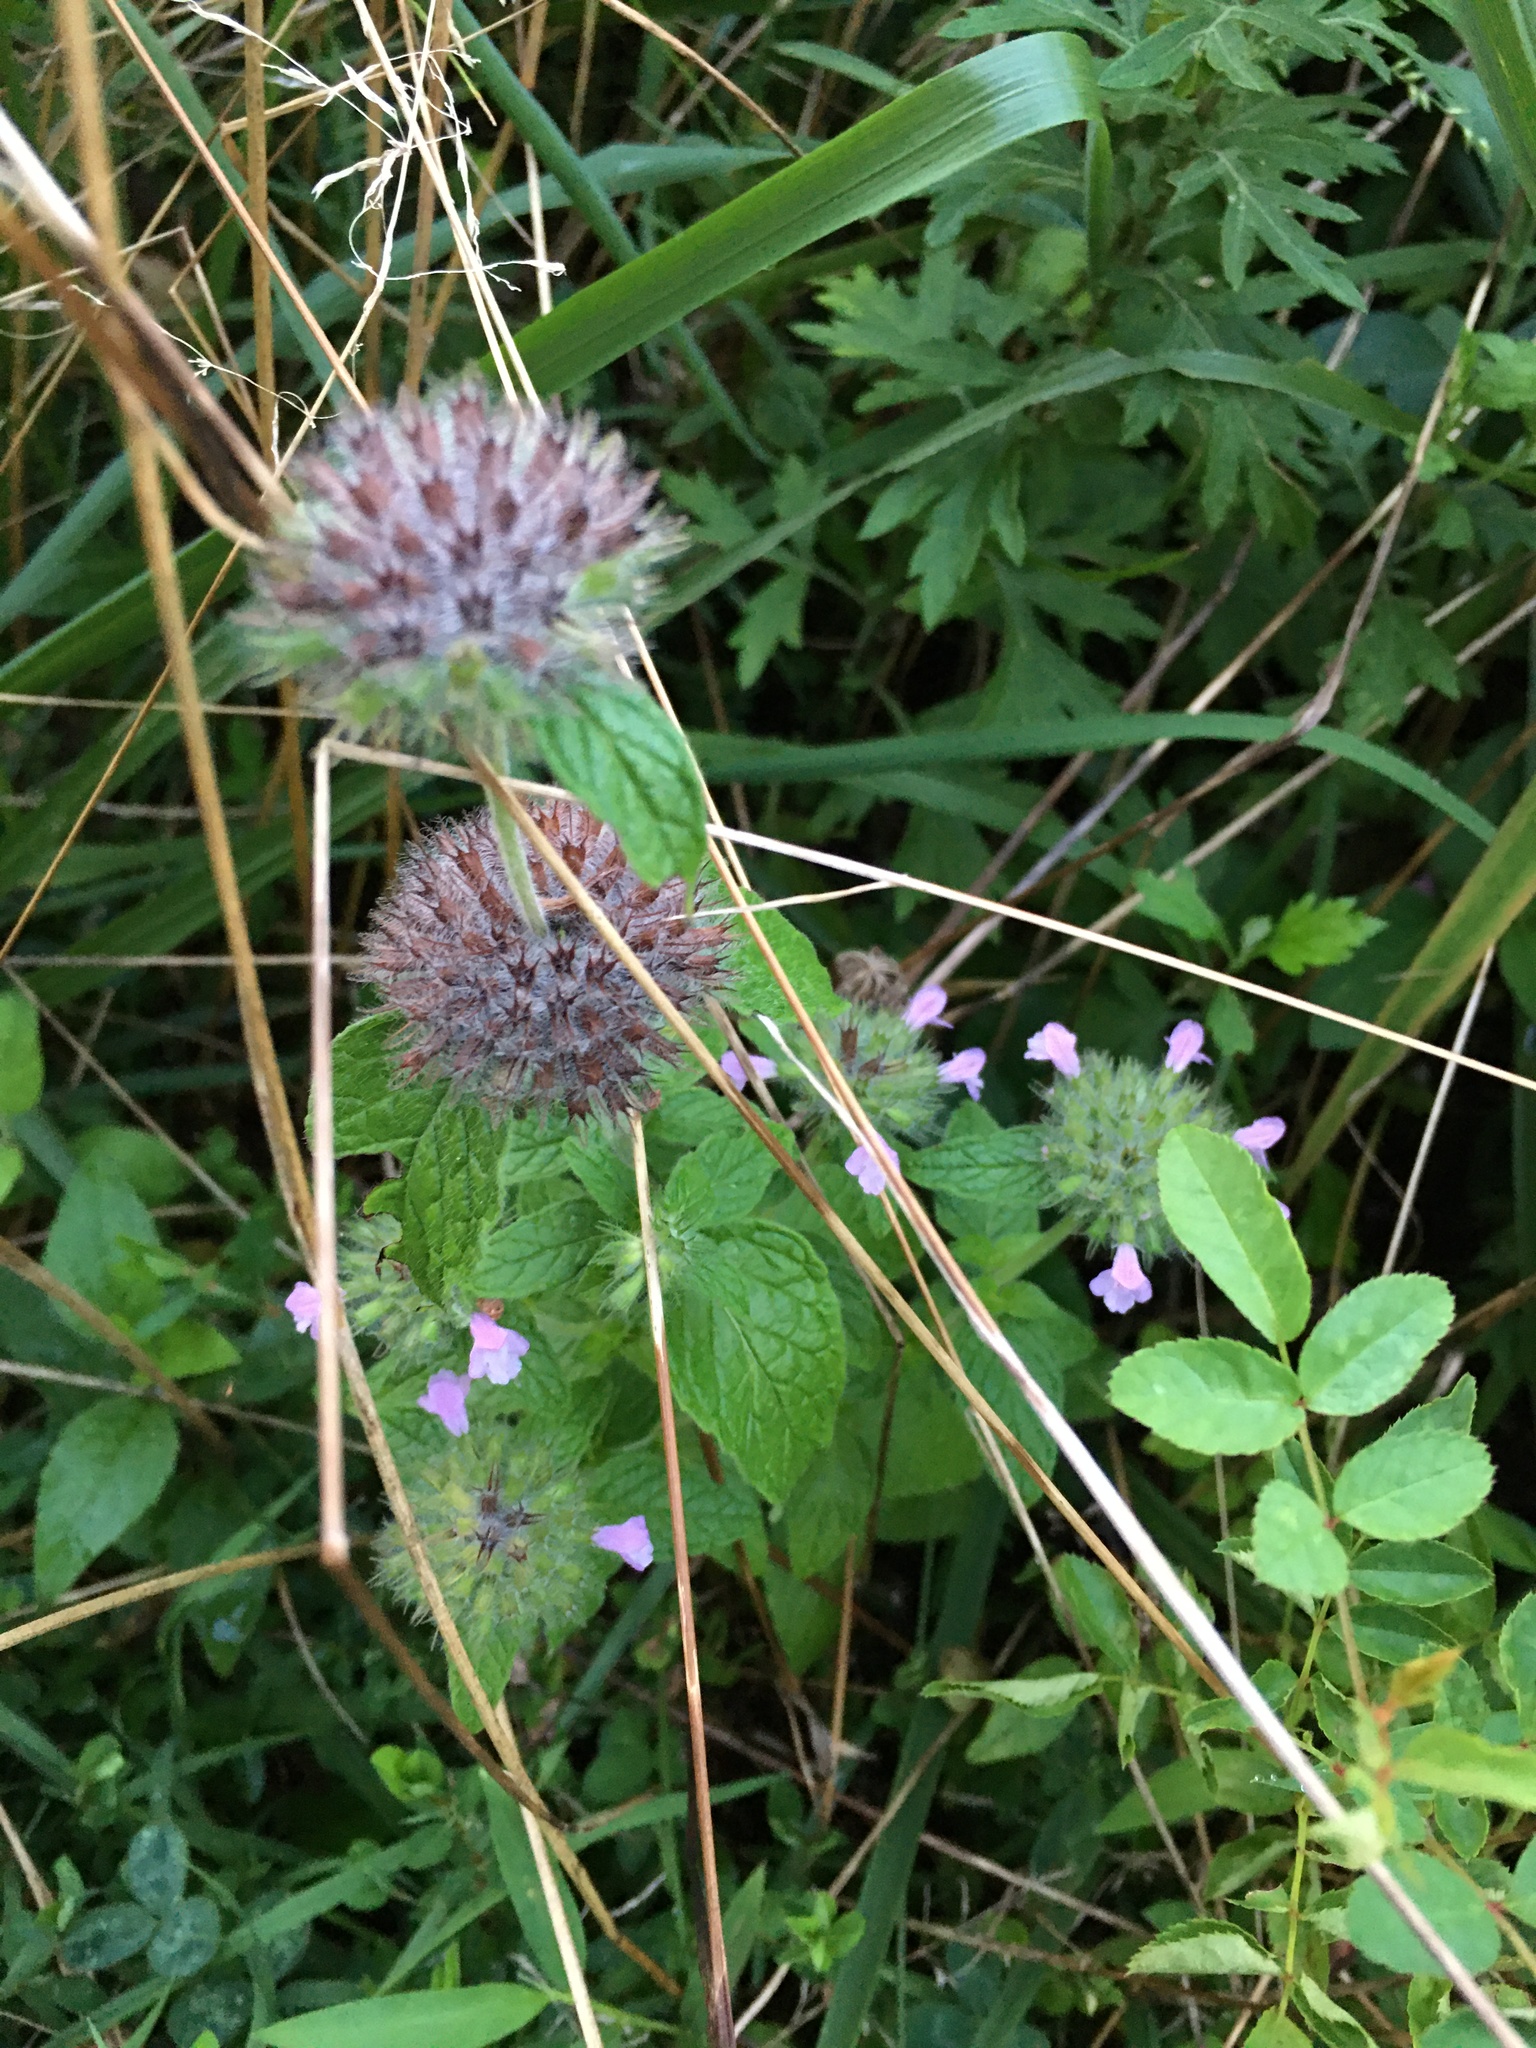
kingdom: Plantae
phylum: Tracheophyta
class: Magnoliopsida
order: Lamiales
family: Lamiaceae
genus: Clinopodium
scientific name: Clinopodium vulgare
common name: Wild basil
